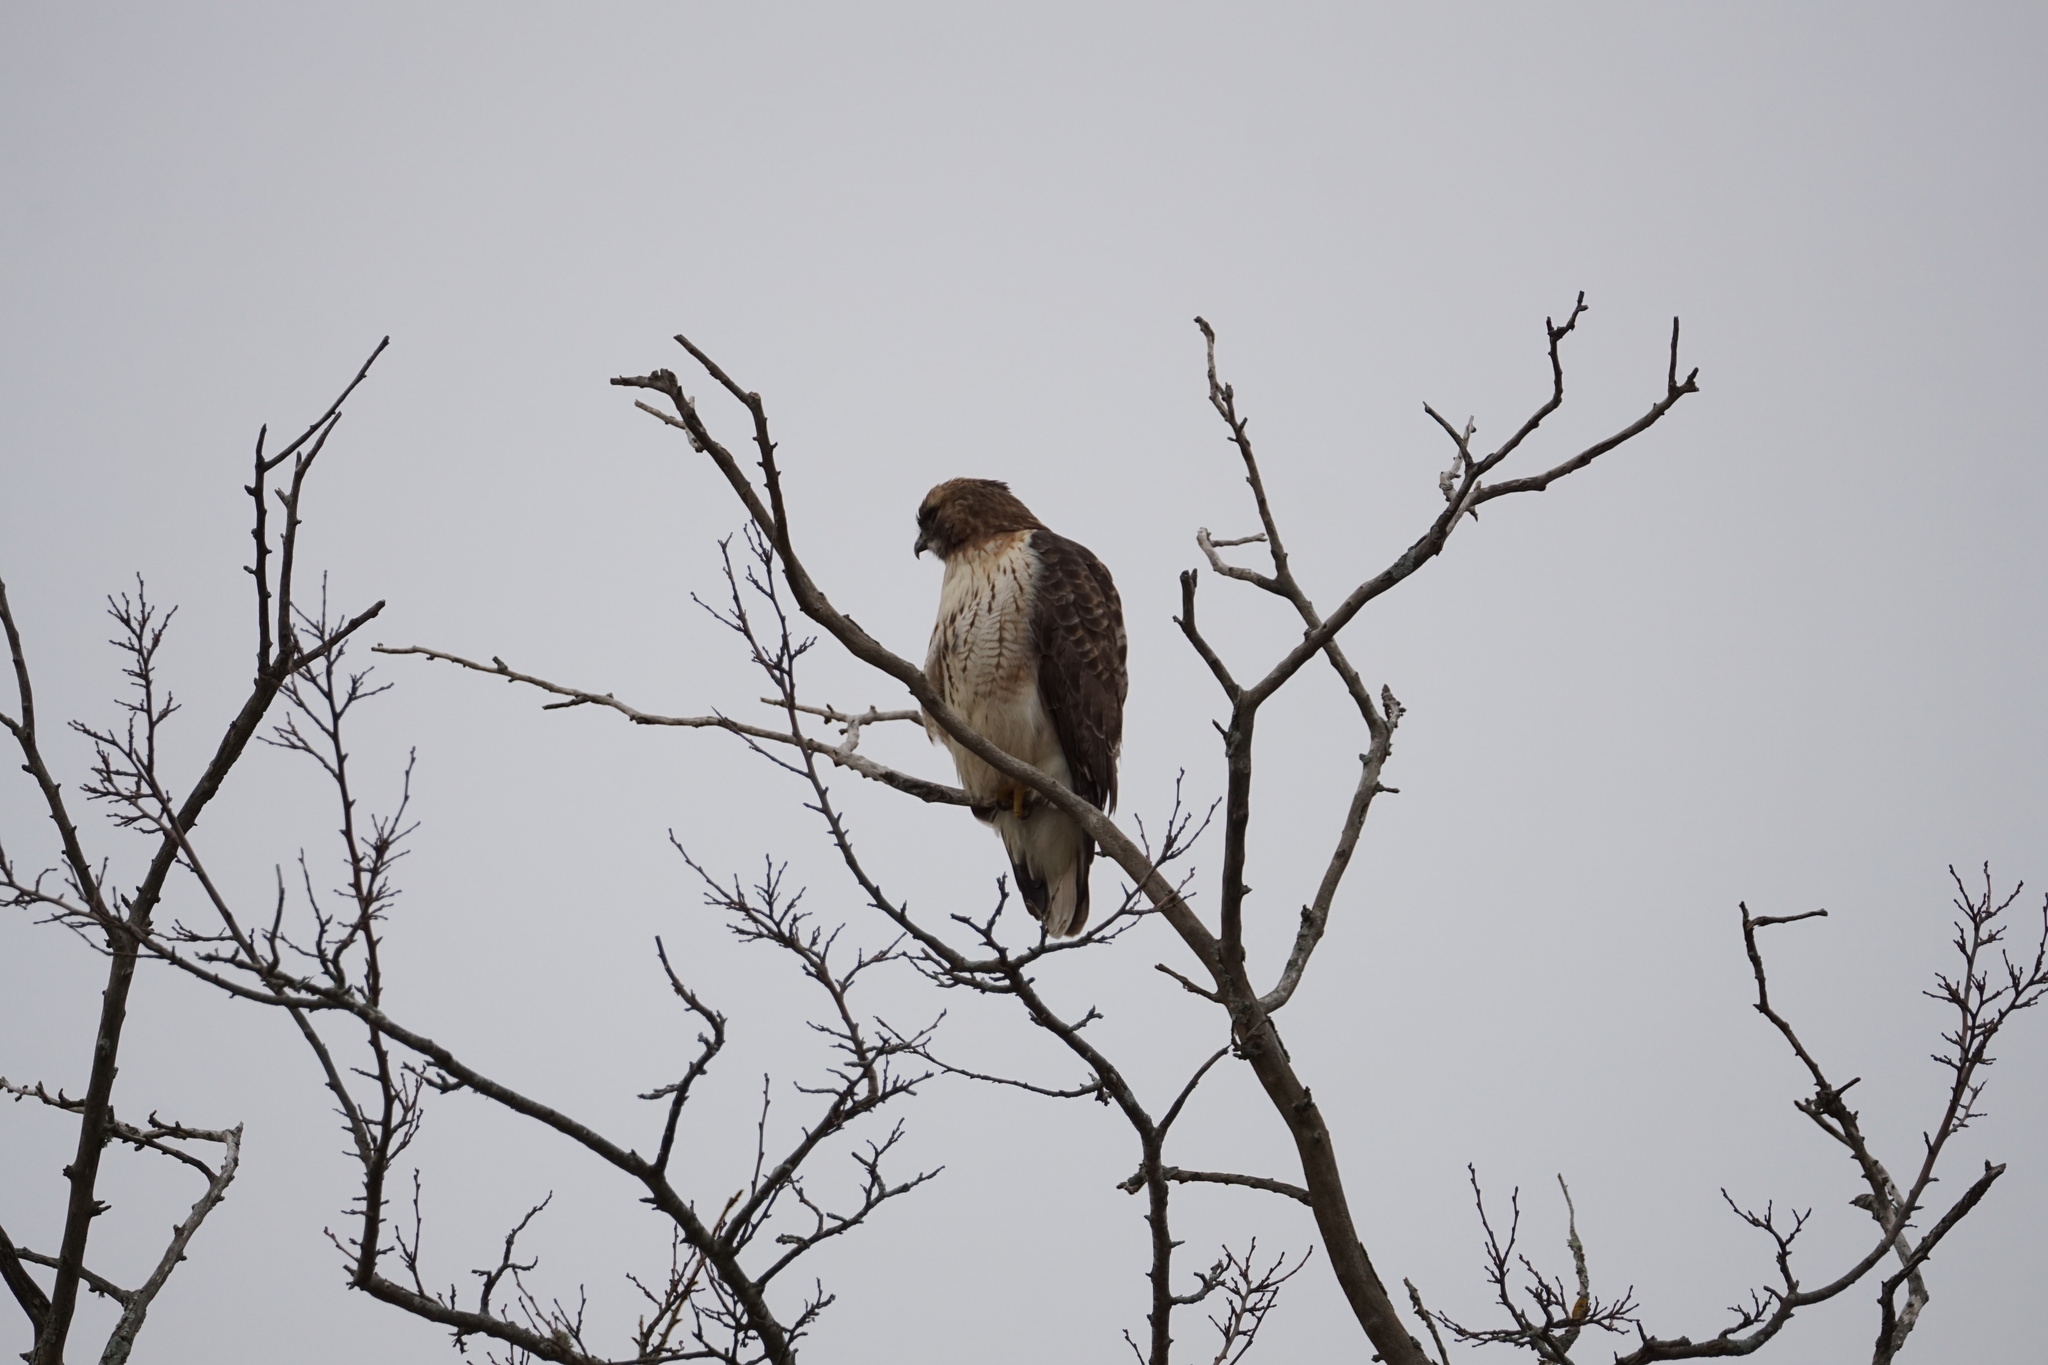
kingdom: Animalia
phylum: Chordata
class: Aves
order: Accipitriformes
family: Accipitridae
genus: Buteo
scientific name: Buteo jamaicensis
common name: Red-tailed hawk
